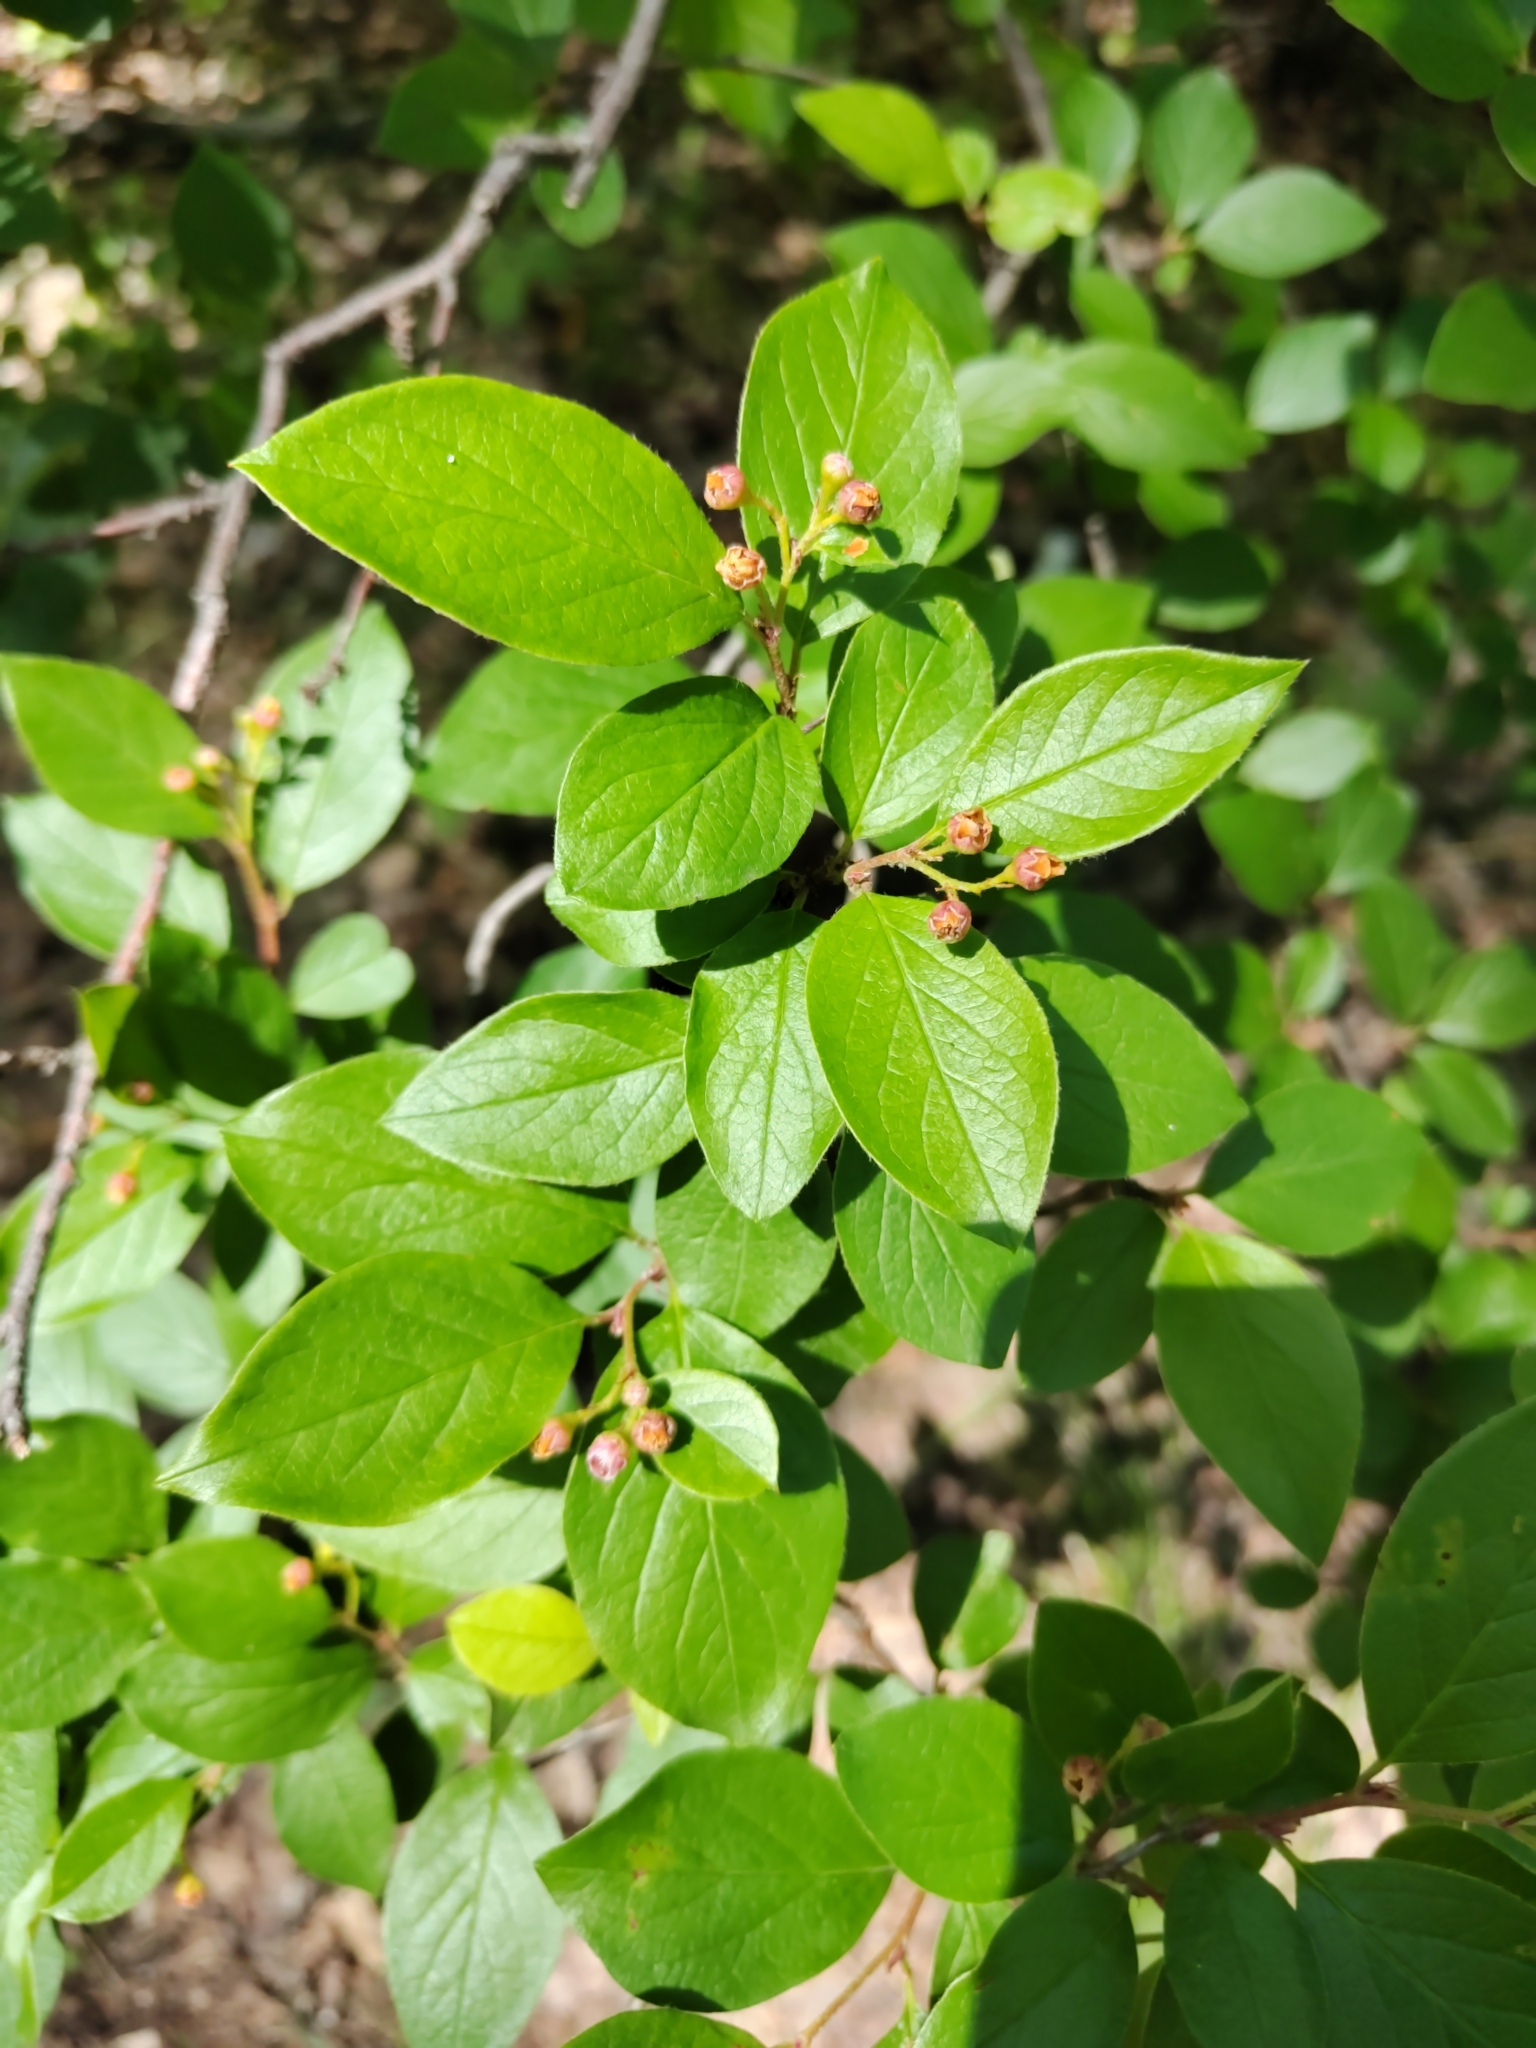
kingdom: Plantae
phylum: Tracheophyta
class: Magnoliopsida
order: Rosales
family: Rosaceae
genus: Cotoneaster
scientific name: Cotoneaster acutifolius
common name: Peking cotoneaster
